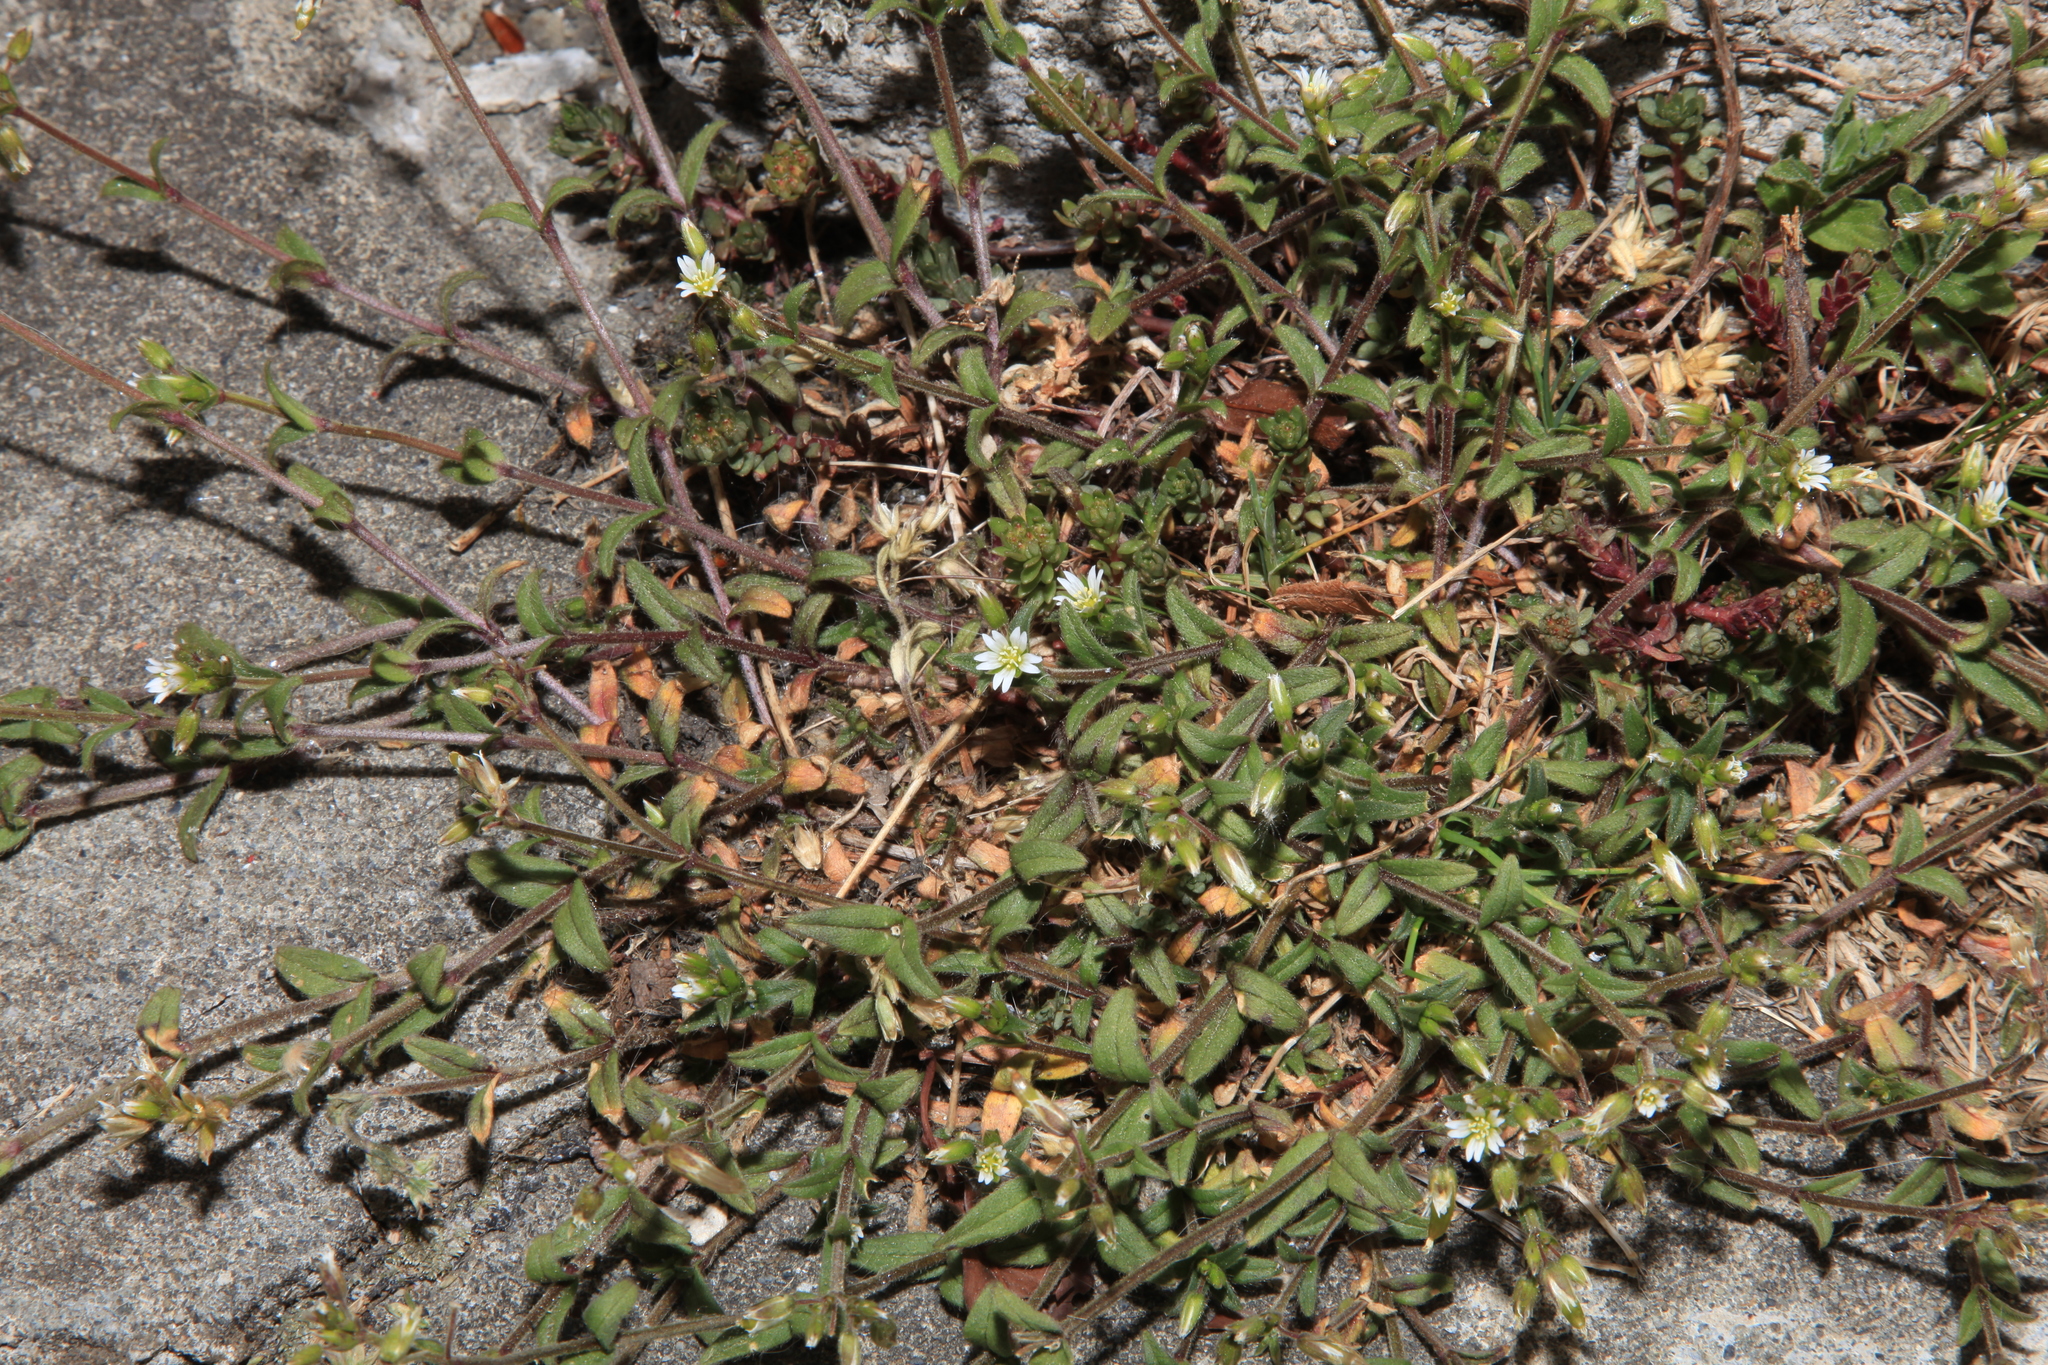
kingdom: Plantae
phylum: Tracheophyta
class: Magnoliopsida
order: Caryophyllales
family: Caryophyllaceae
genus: Cerastium
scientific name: Cerastium morrisonense
